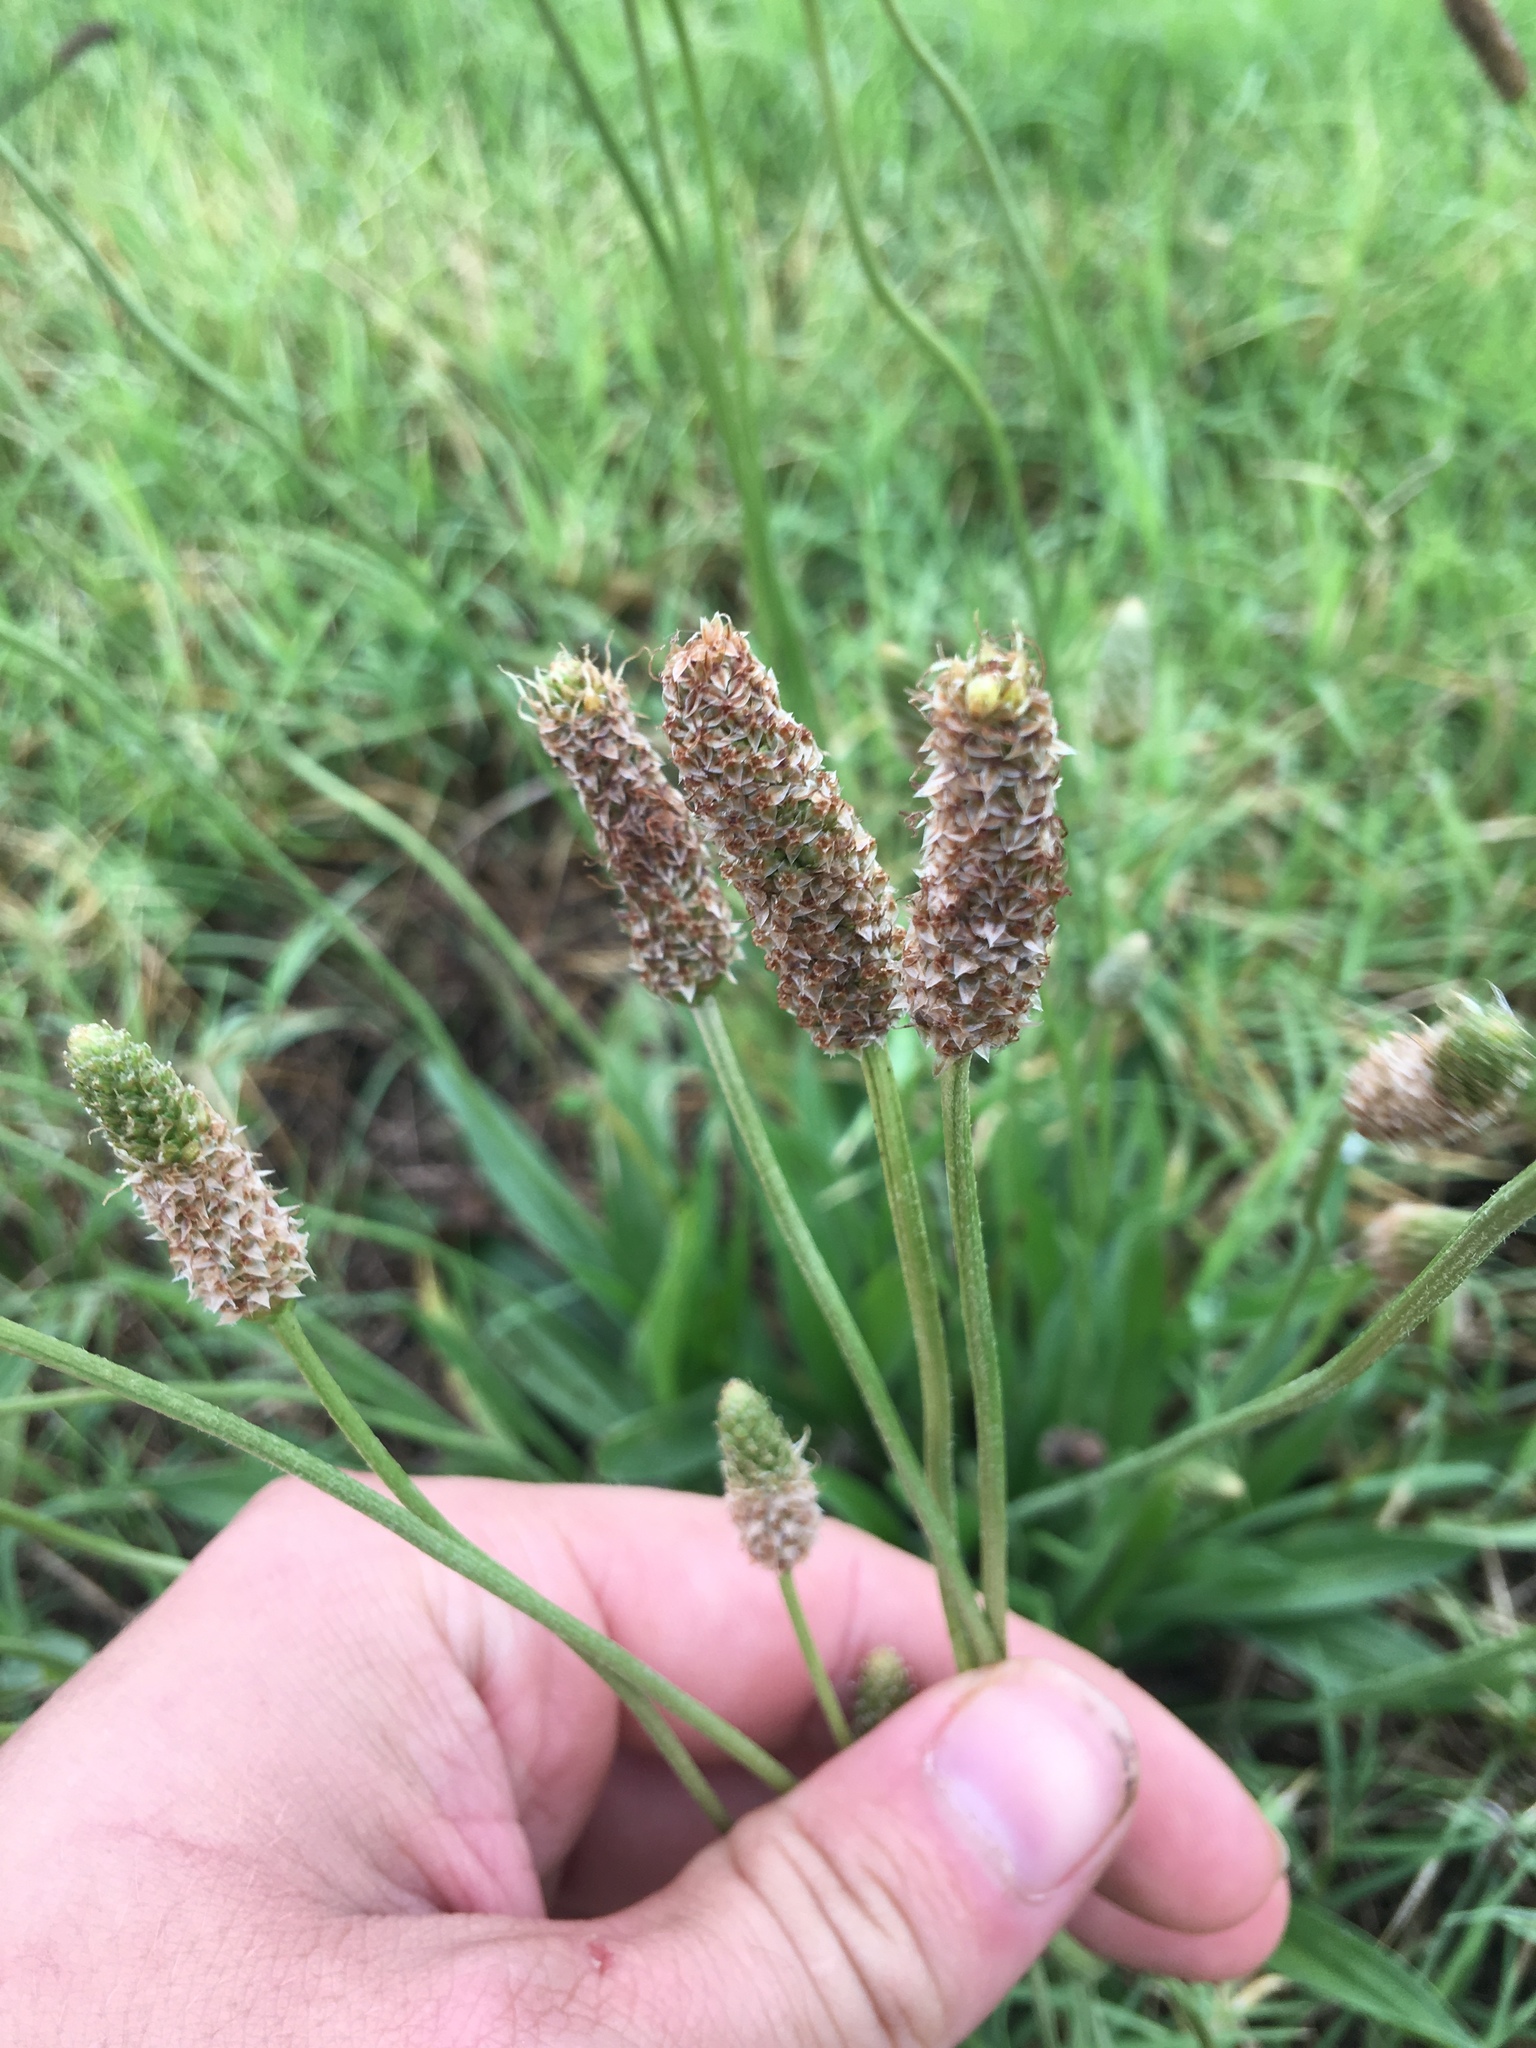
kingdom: Plantae
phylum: Tracheophyta
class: Magnoliopsida
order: Lamiales
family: Plantaginaceae
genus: Plantago
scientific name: Plantago lanceolata
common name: Ribwort plantain
